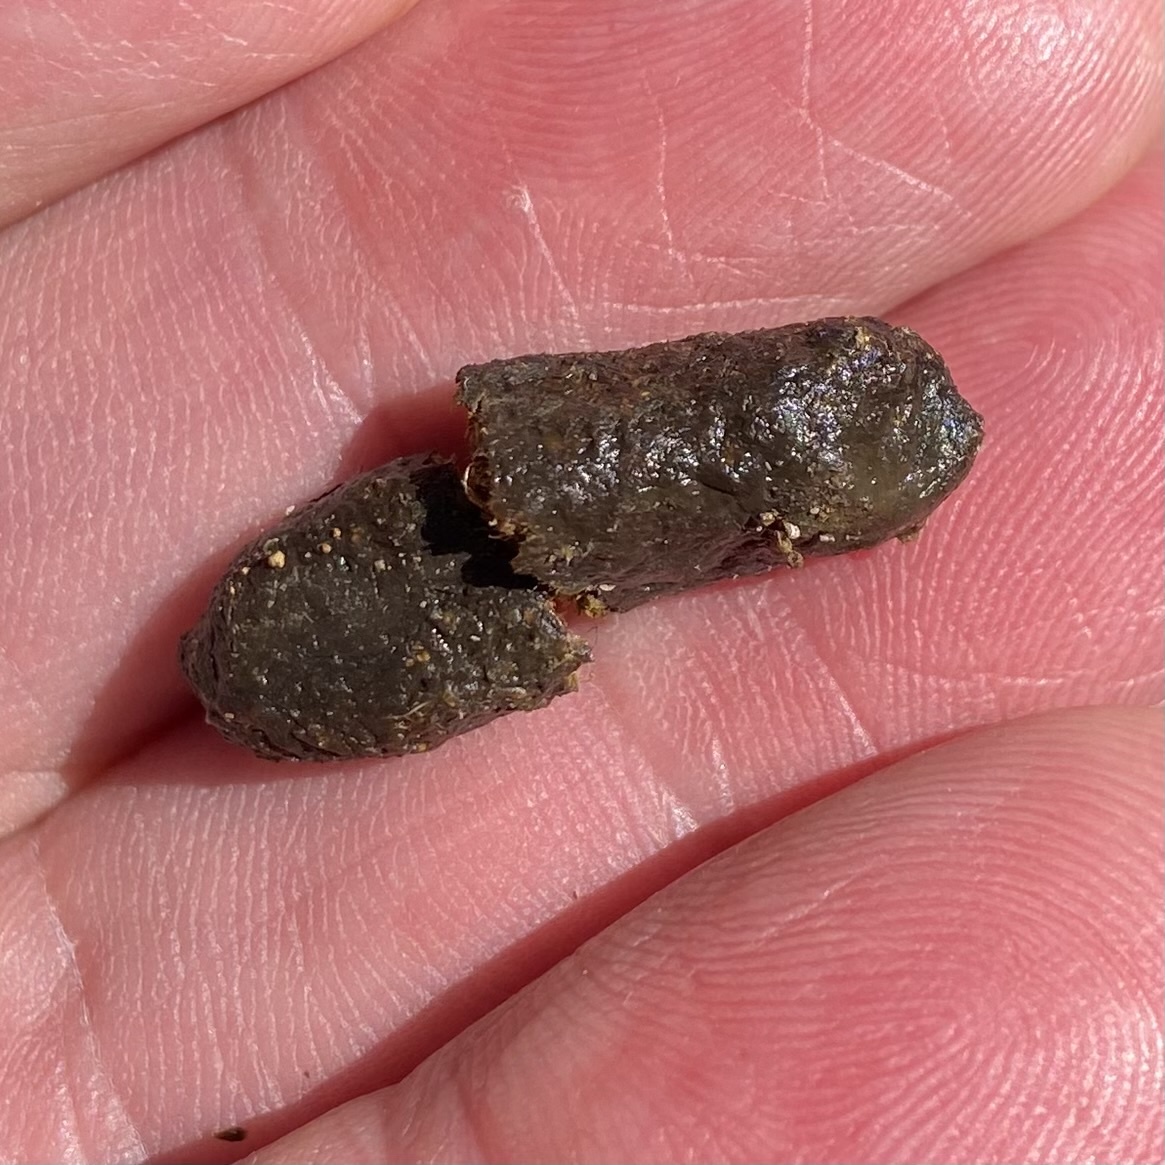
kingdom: Animalia
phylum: Chordata
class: Mammalia
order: Diprotodontia
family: Phalangeridae
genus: Trichosurus
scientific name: Trichosurus vulpecula
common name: Common brushtail
